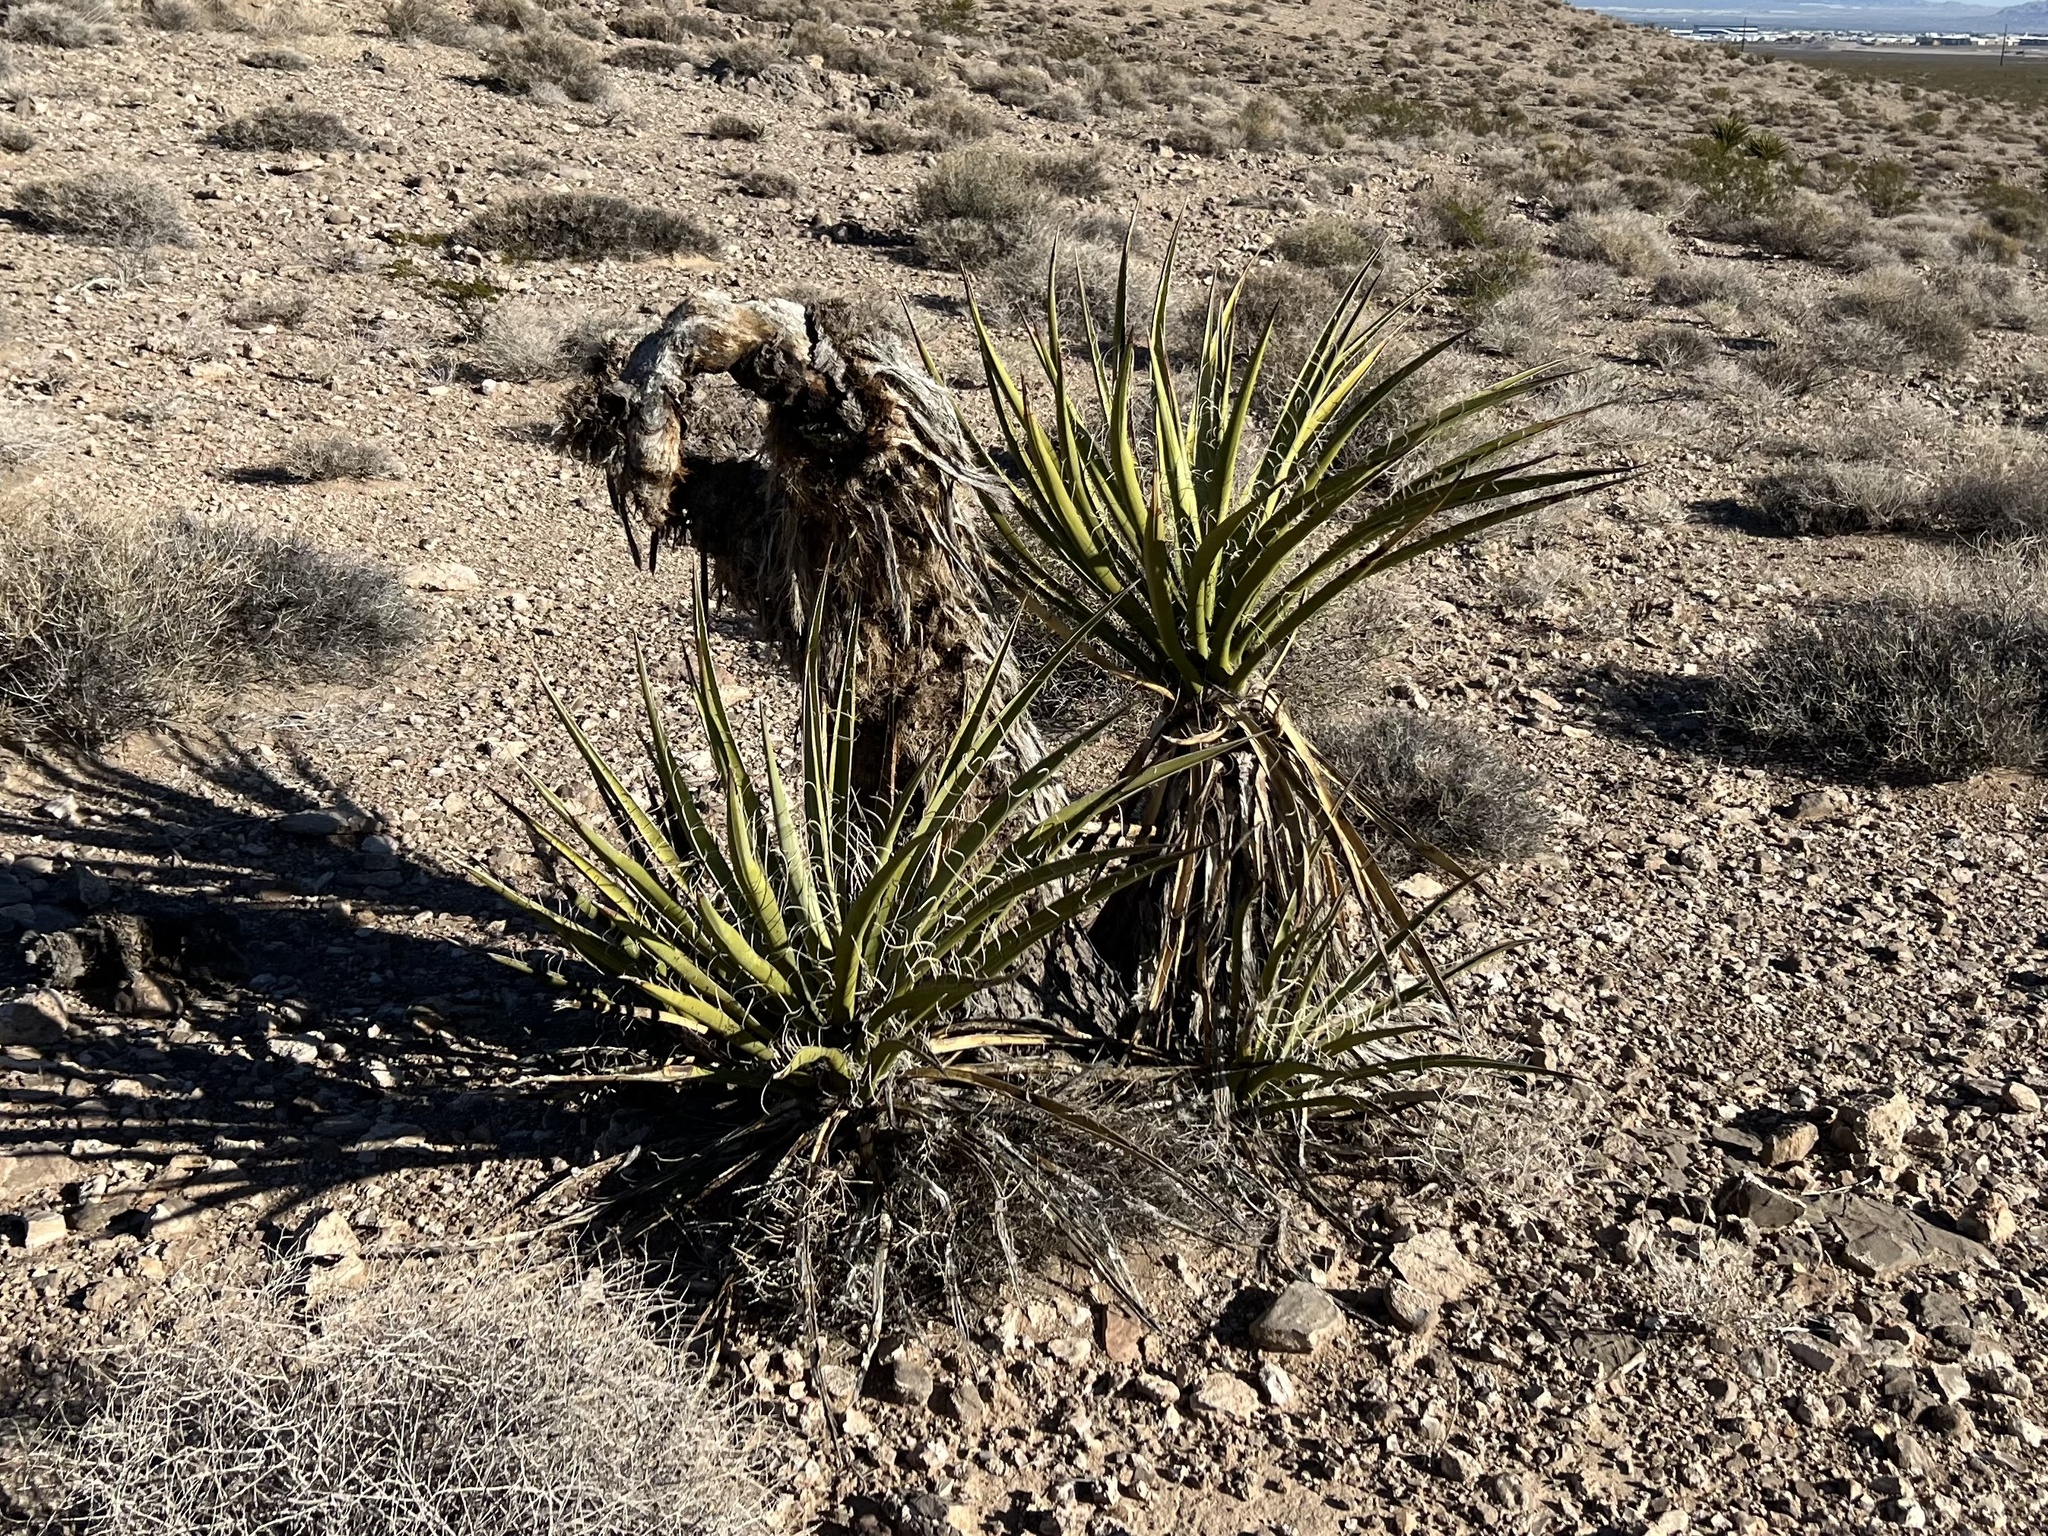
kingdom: Plantae
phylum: Tracheophyta
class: Liliopsida
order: Asparagales
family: Asparagaceae
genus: Yucca
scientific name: Yucca schidigera
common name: Mojave yucca
